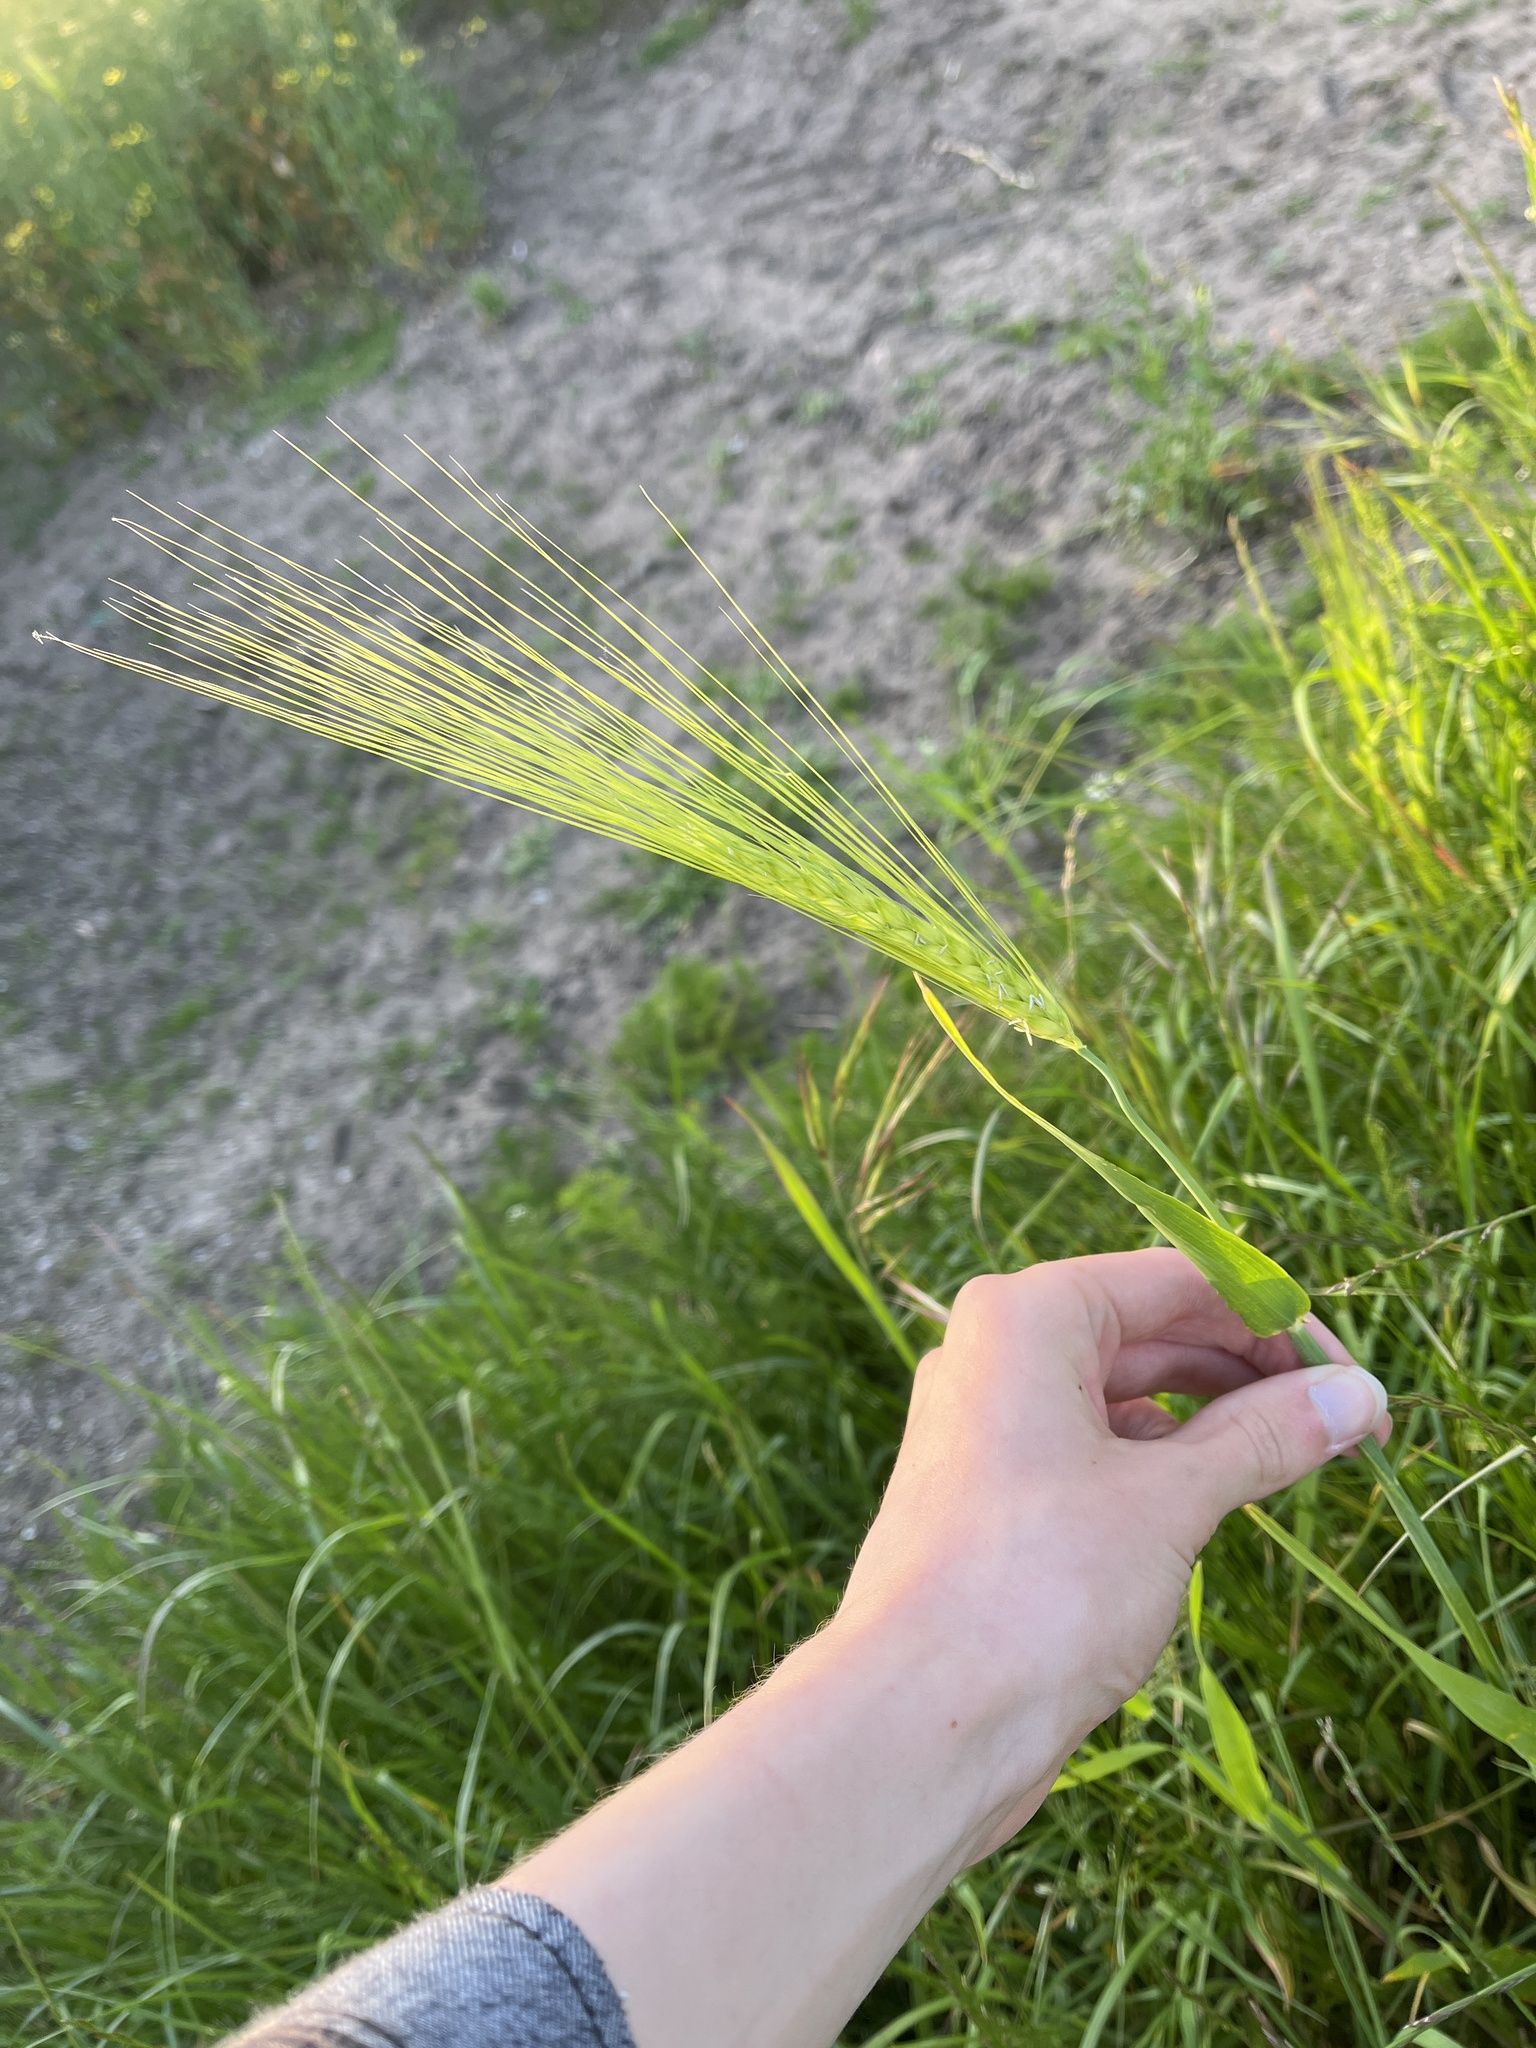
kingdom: Plantae
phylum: Tracheophyta
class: Liliopsida
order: Poales
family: Poaceae
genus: Hordeum
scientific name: Hordeum vulgare
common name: Common barley
